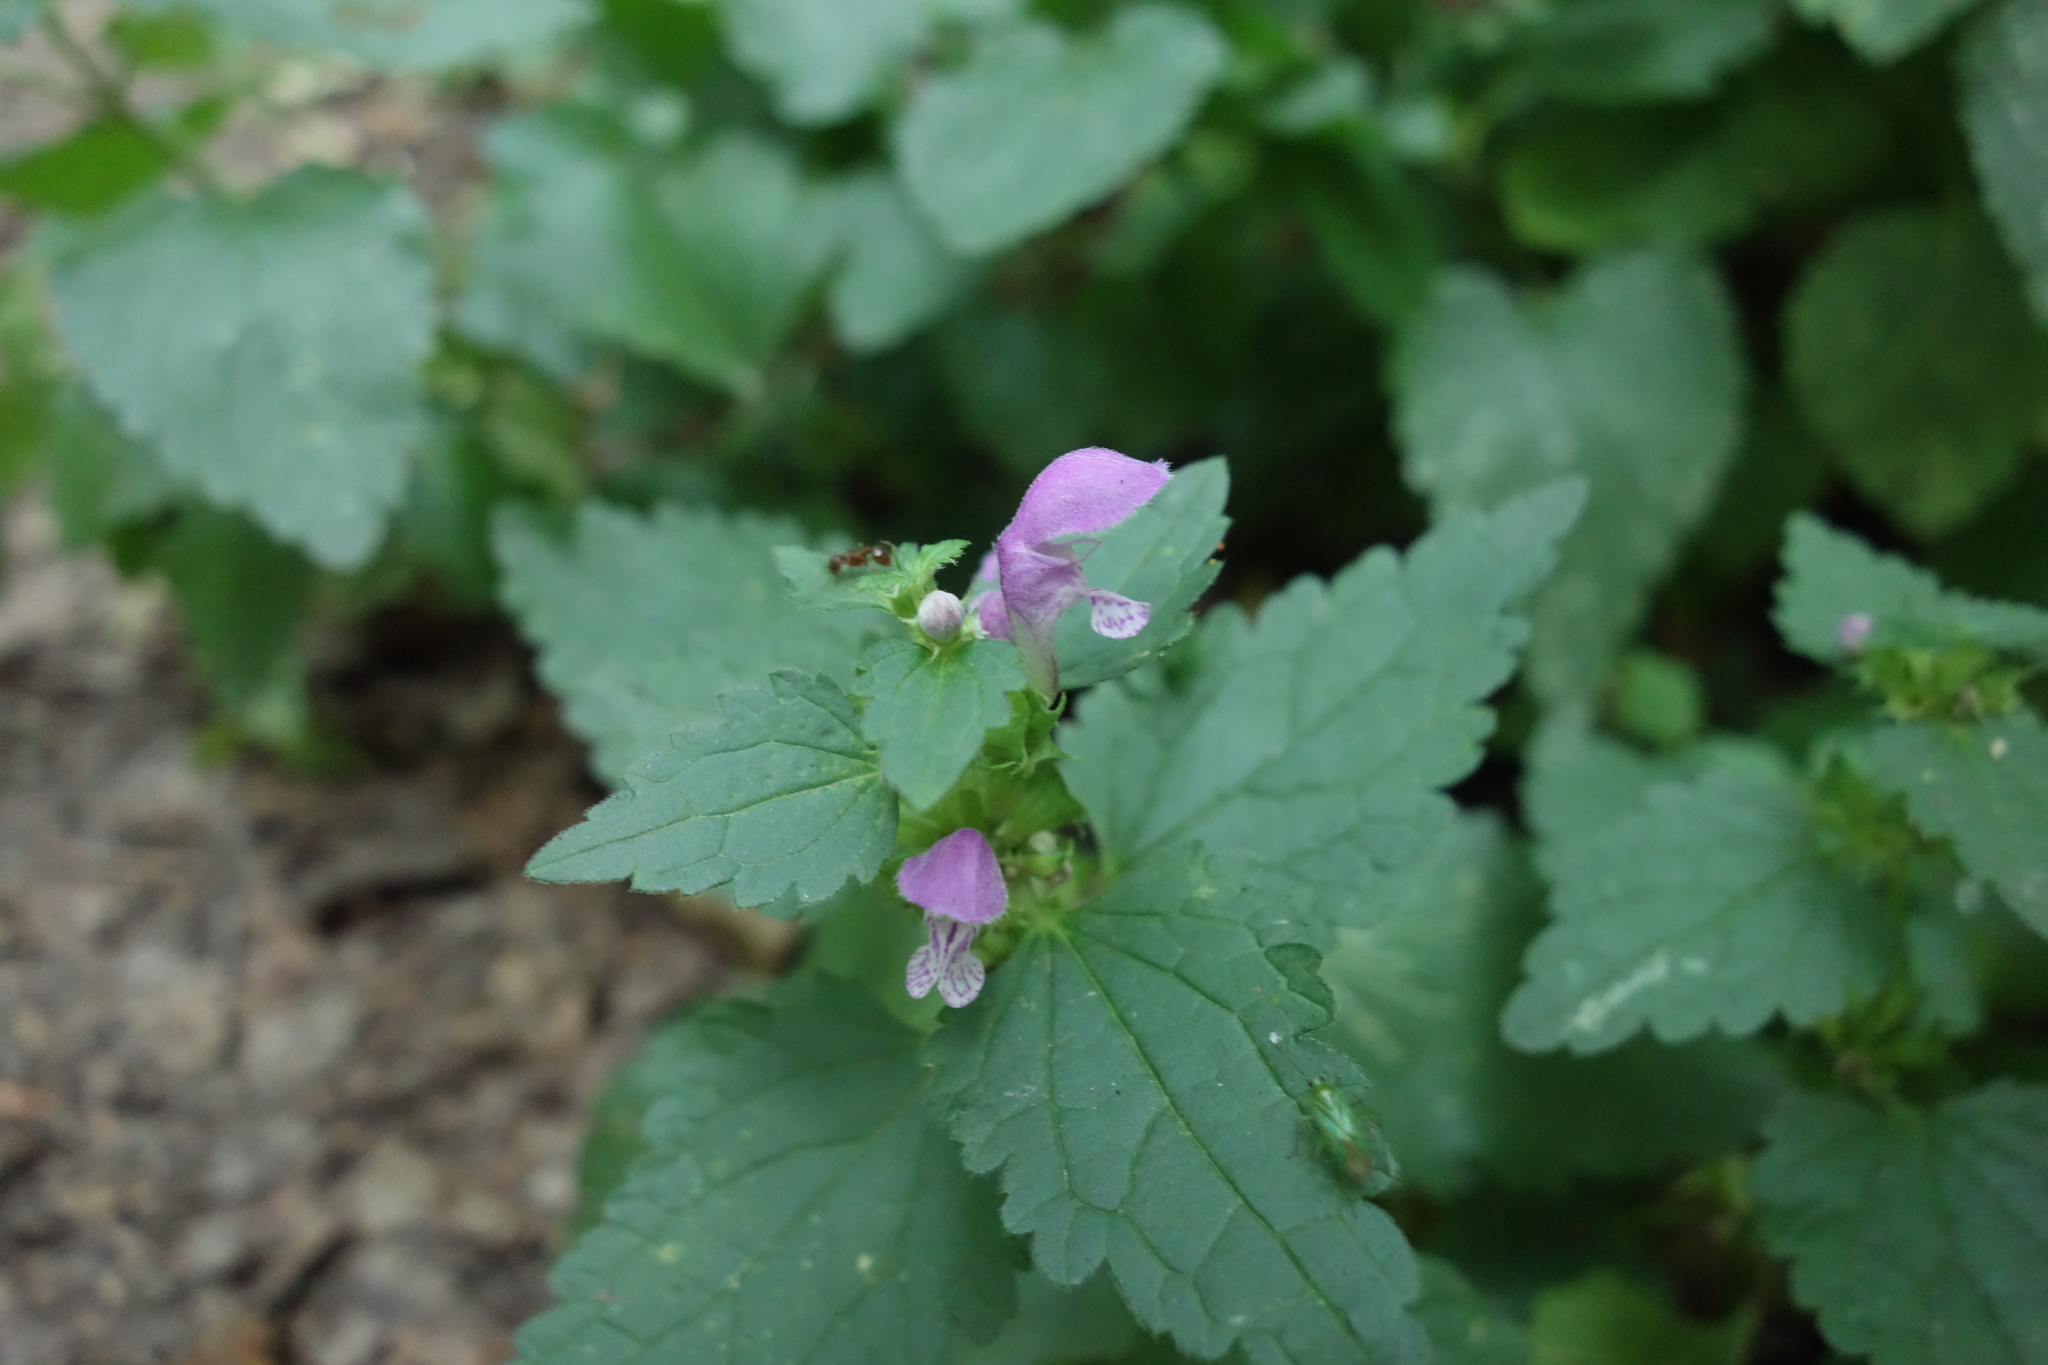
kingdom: Plantae
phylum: Tracheophyta
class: Magnoliopsida
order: Lamiales
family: Lamiaceae
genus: Lamium
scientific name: Lamium maculatum
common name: Spotted dead-nettle
